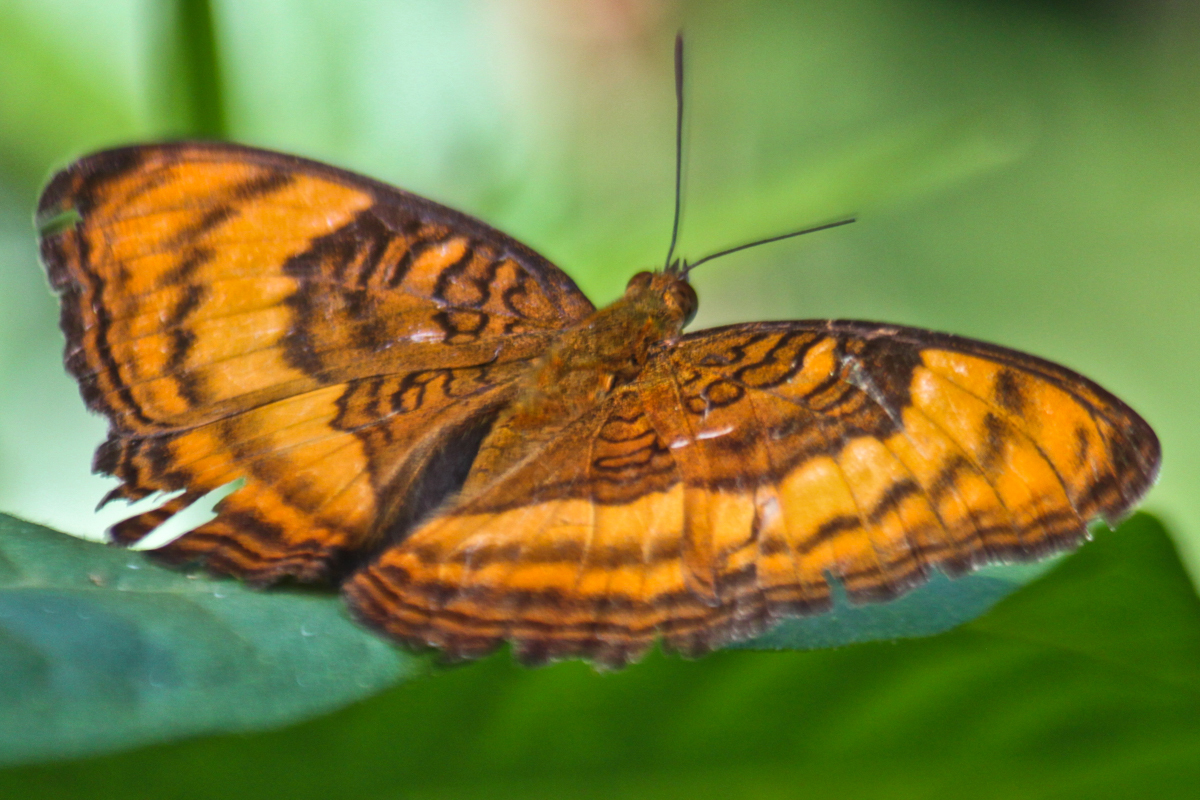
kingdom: Animalia
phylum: Arthropoda
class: Insecta
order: Lepidoptera
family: Nymphalidae
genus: Pandita
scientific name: Pandita sinope
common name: Colonel
